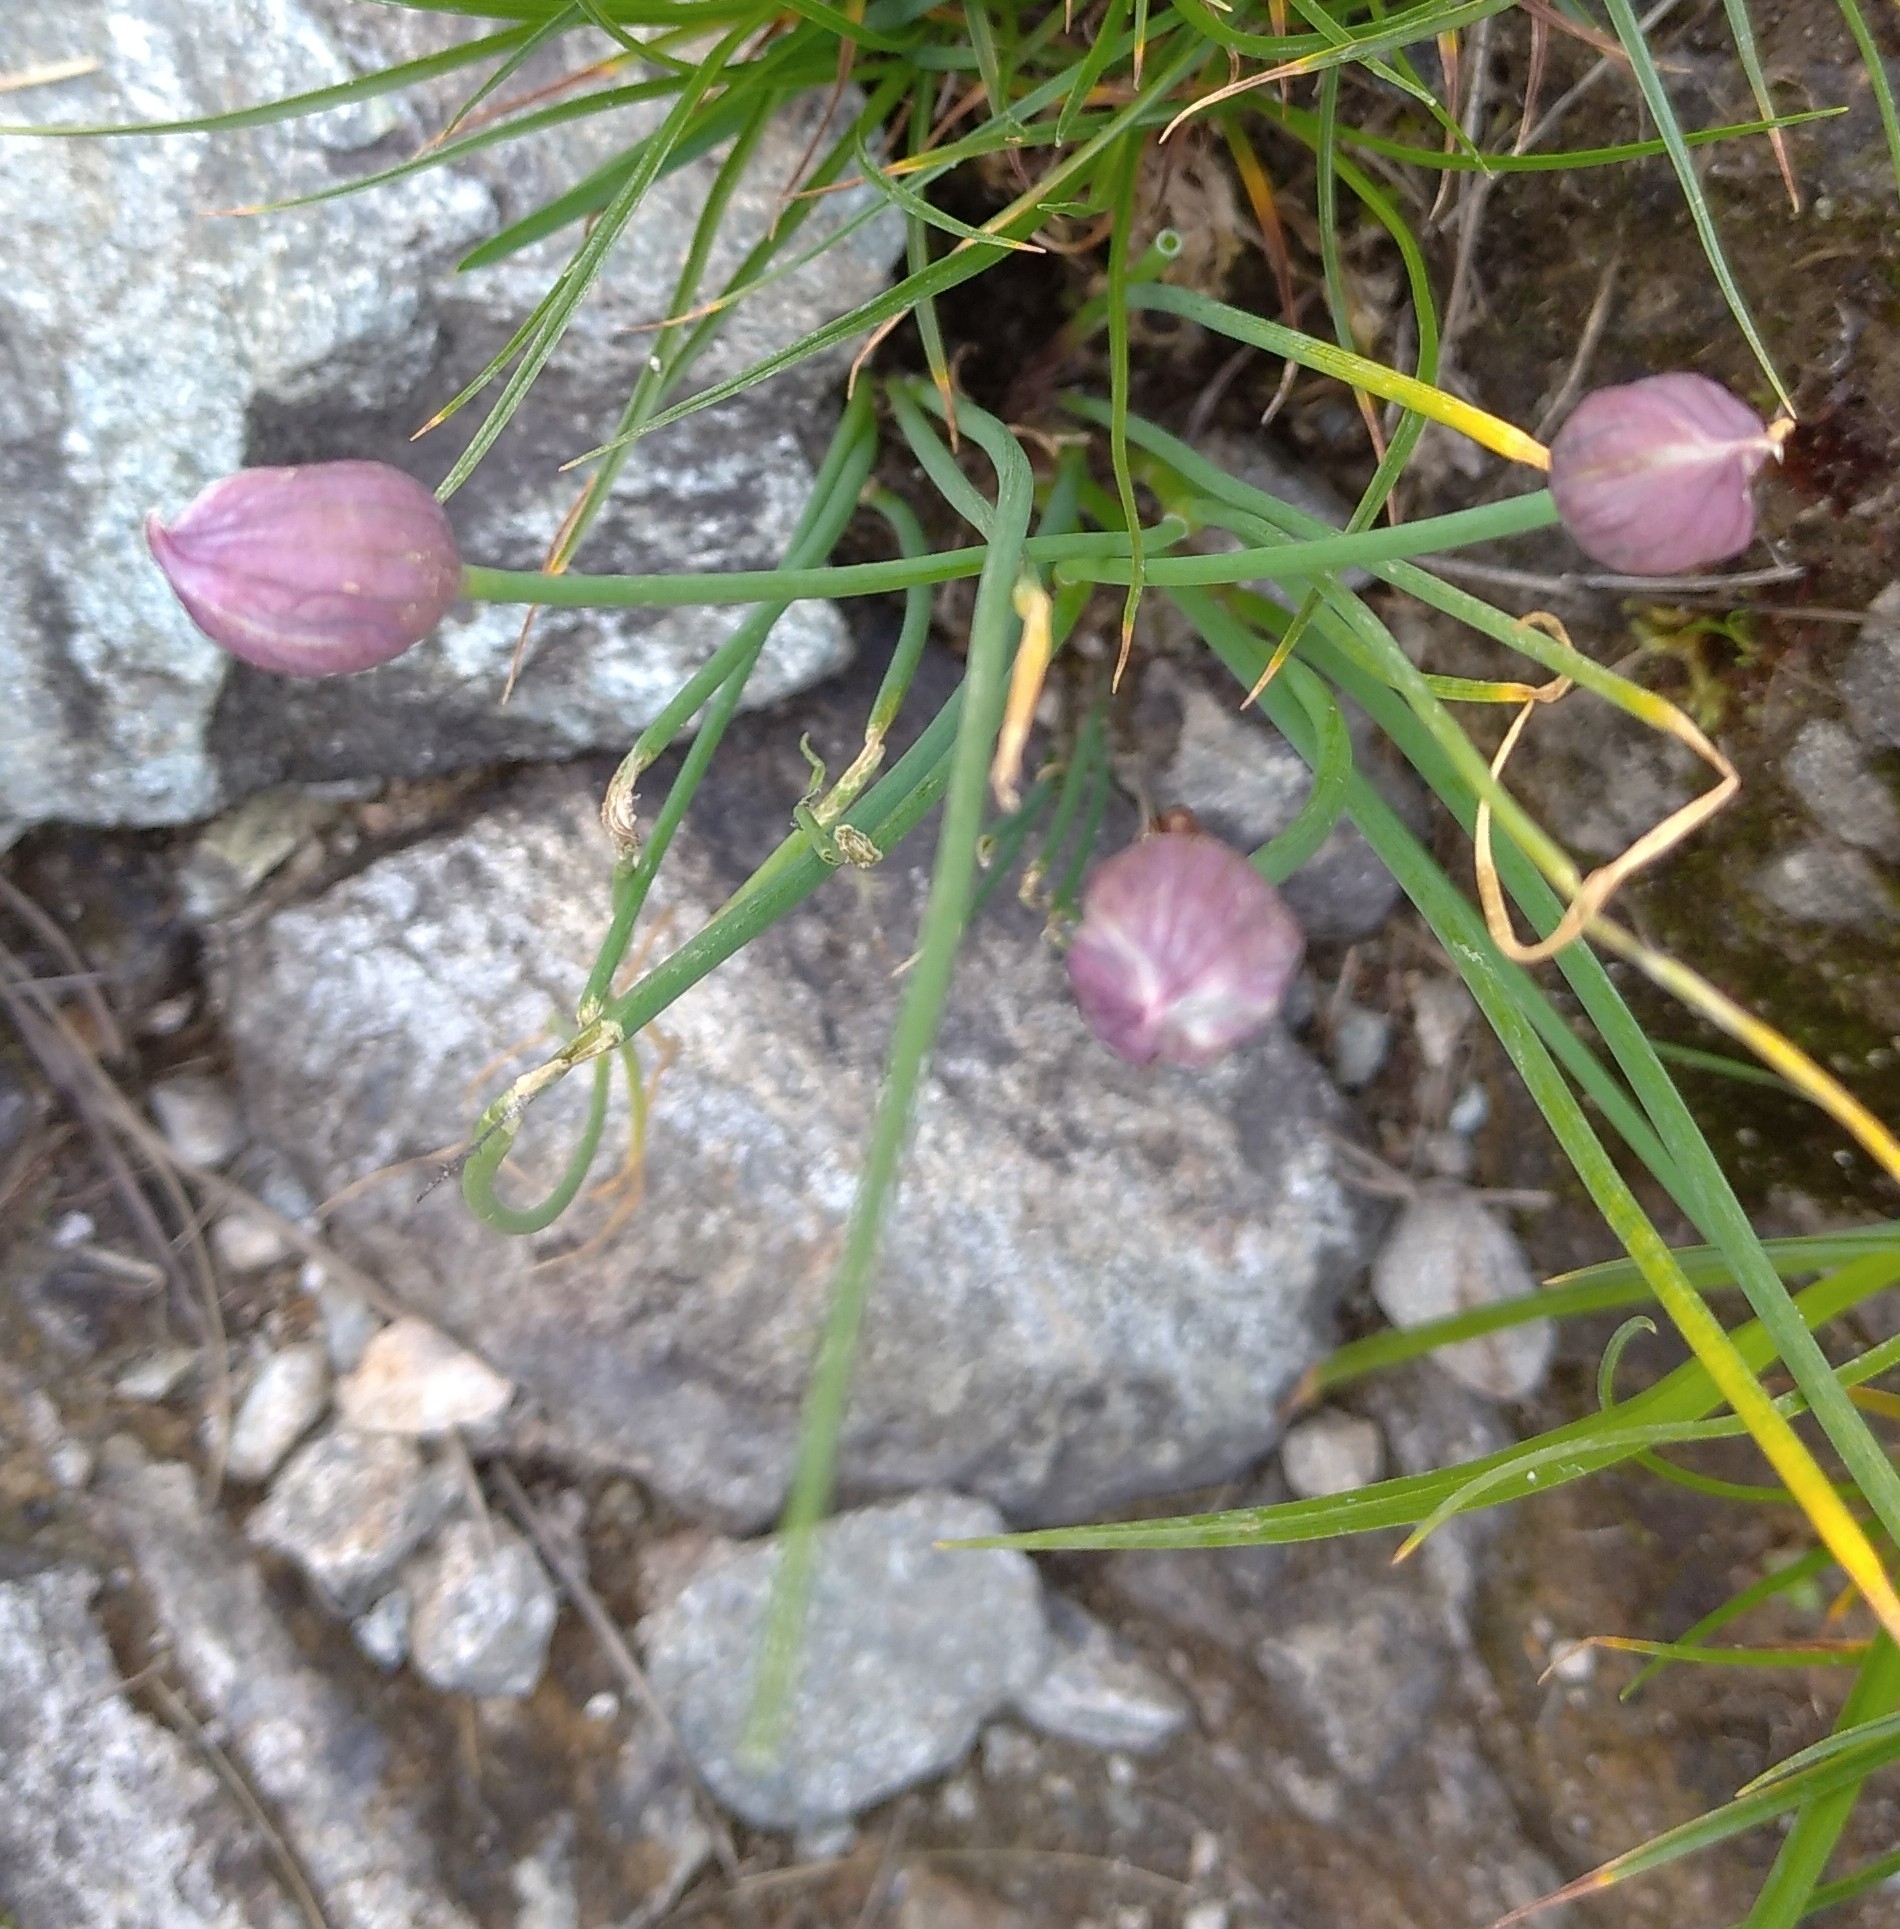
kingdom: Plantae
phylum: Tracheophyta
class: Liliopsida
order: Asparagales
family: Amaryllidaceae
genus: Allium
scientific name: Allium schoenoprasum
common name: Chives
